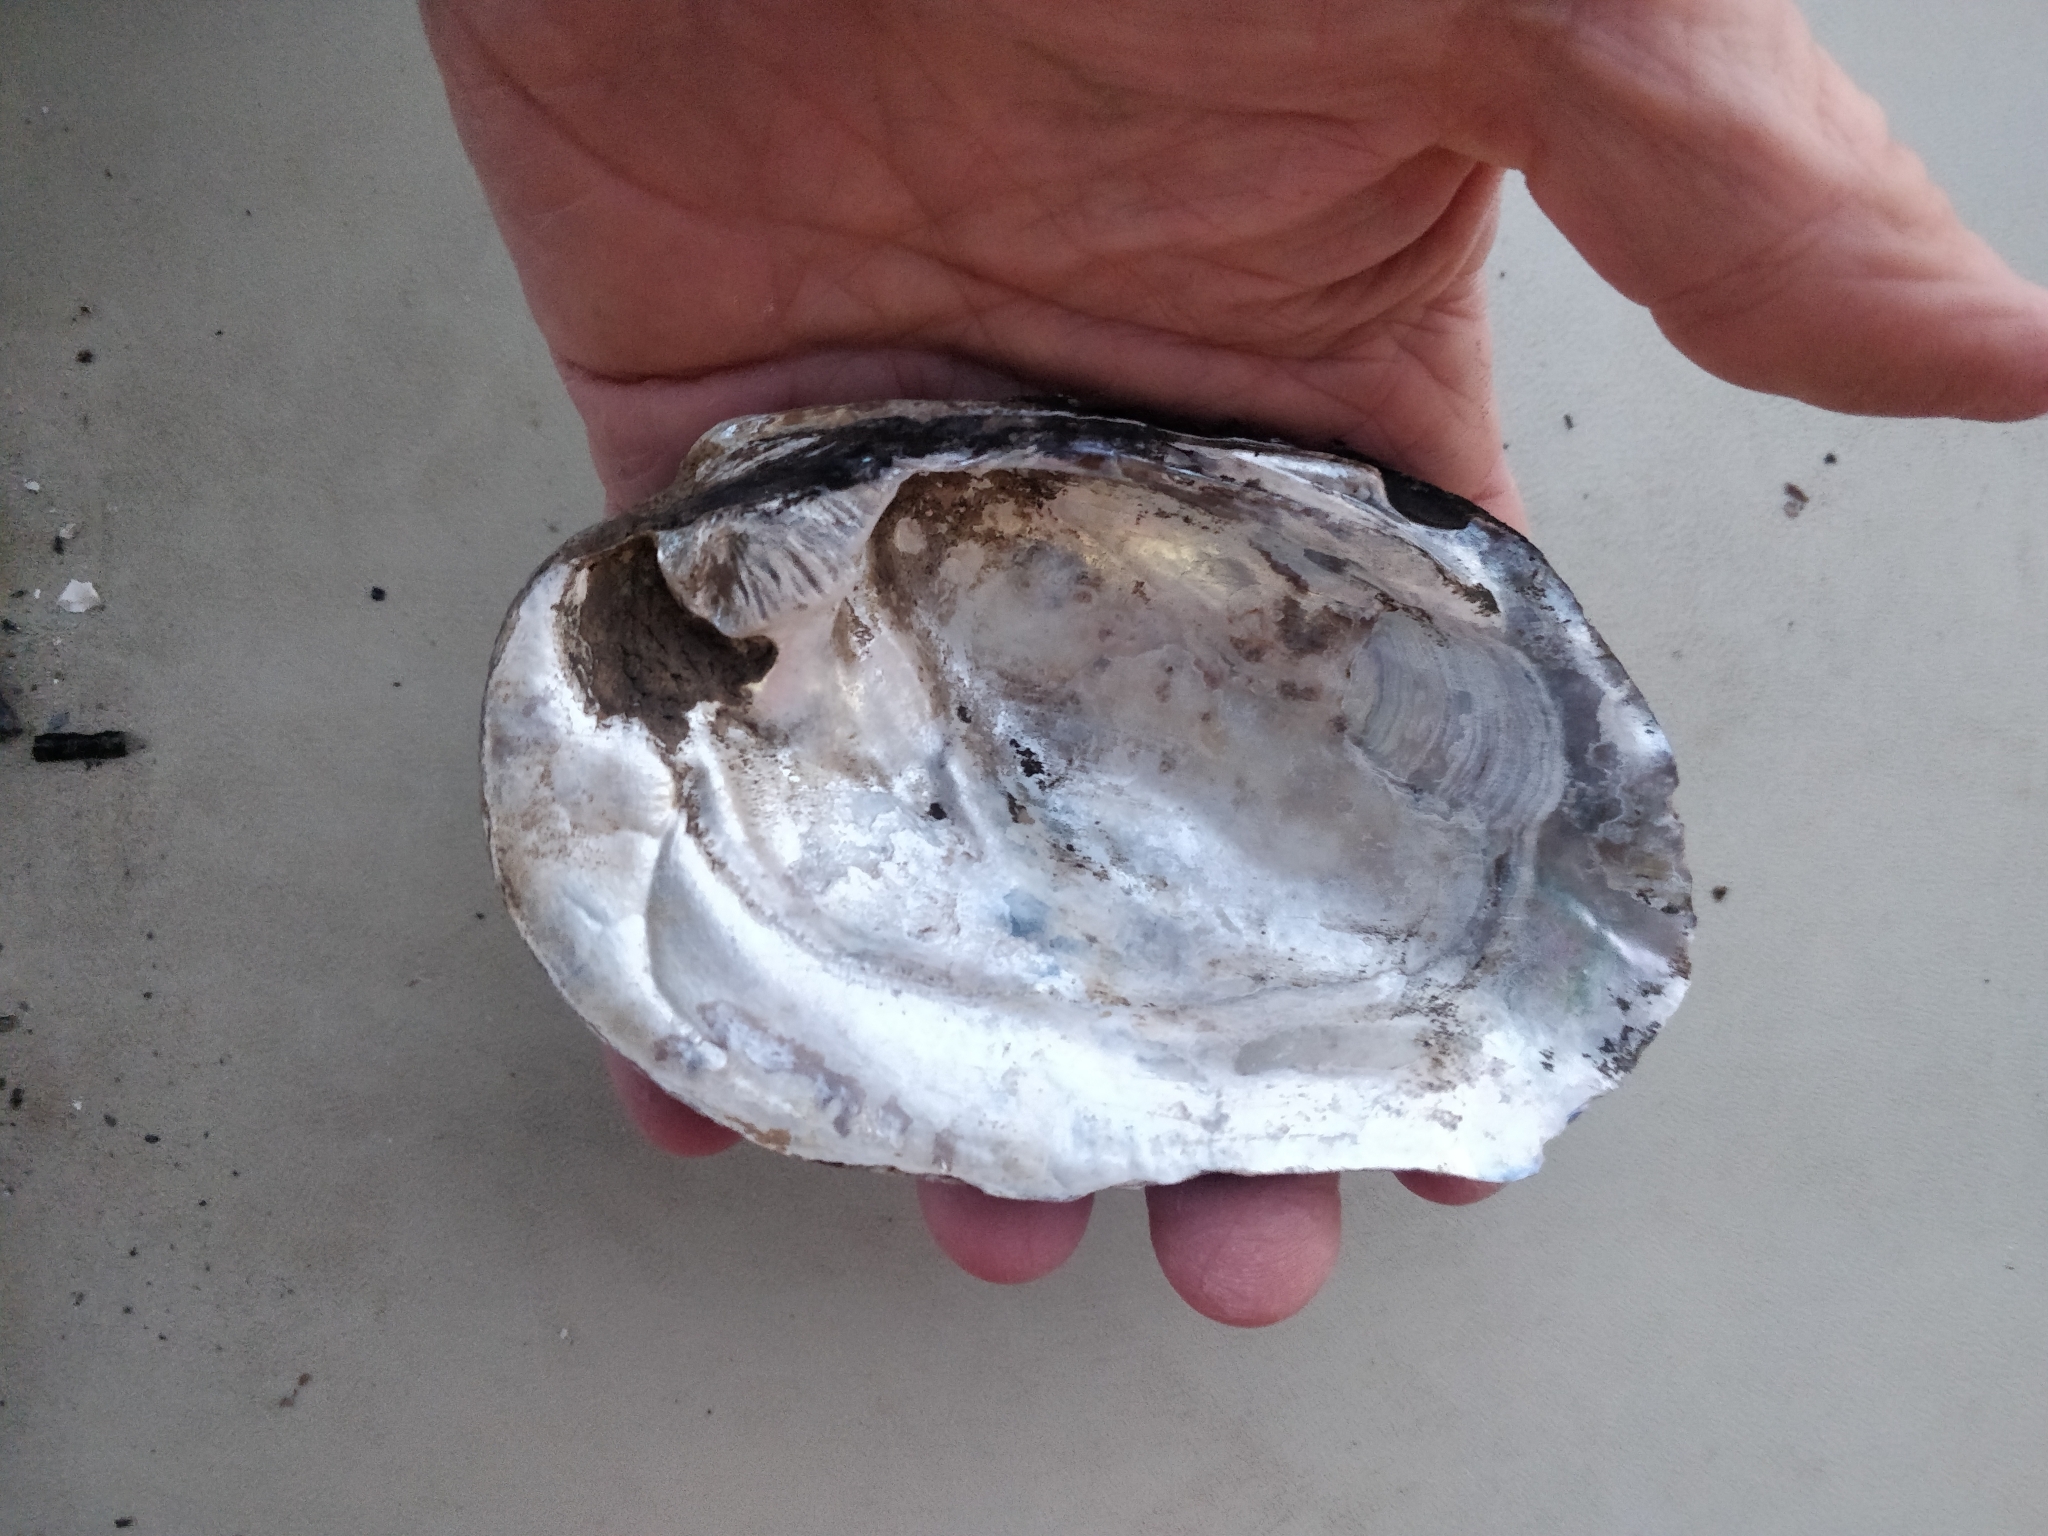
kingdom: Animalia
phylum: Mollusca
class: Bivalvia
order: Unionida
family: Unionidae
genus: Amblema
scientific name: Amblema plicata
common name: Threeridge
